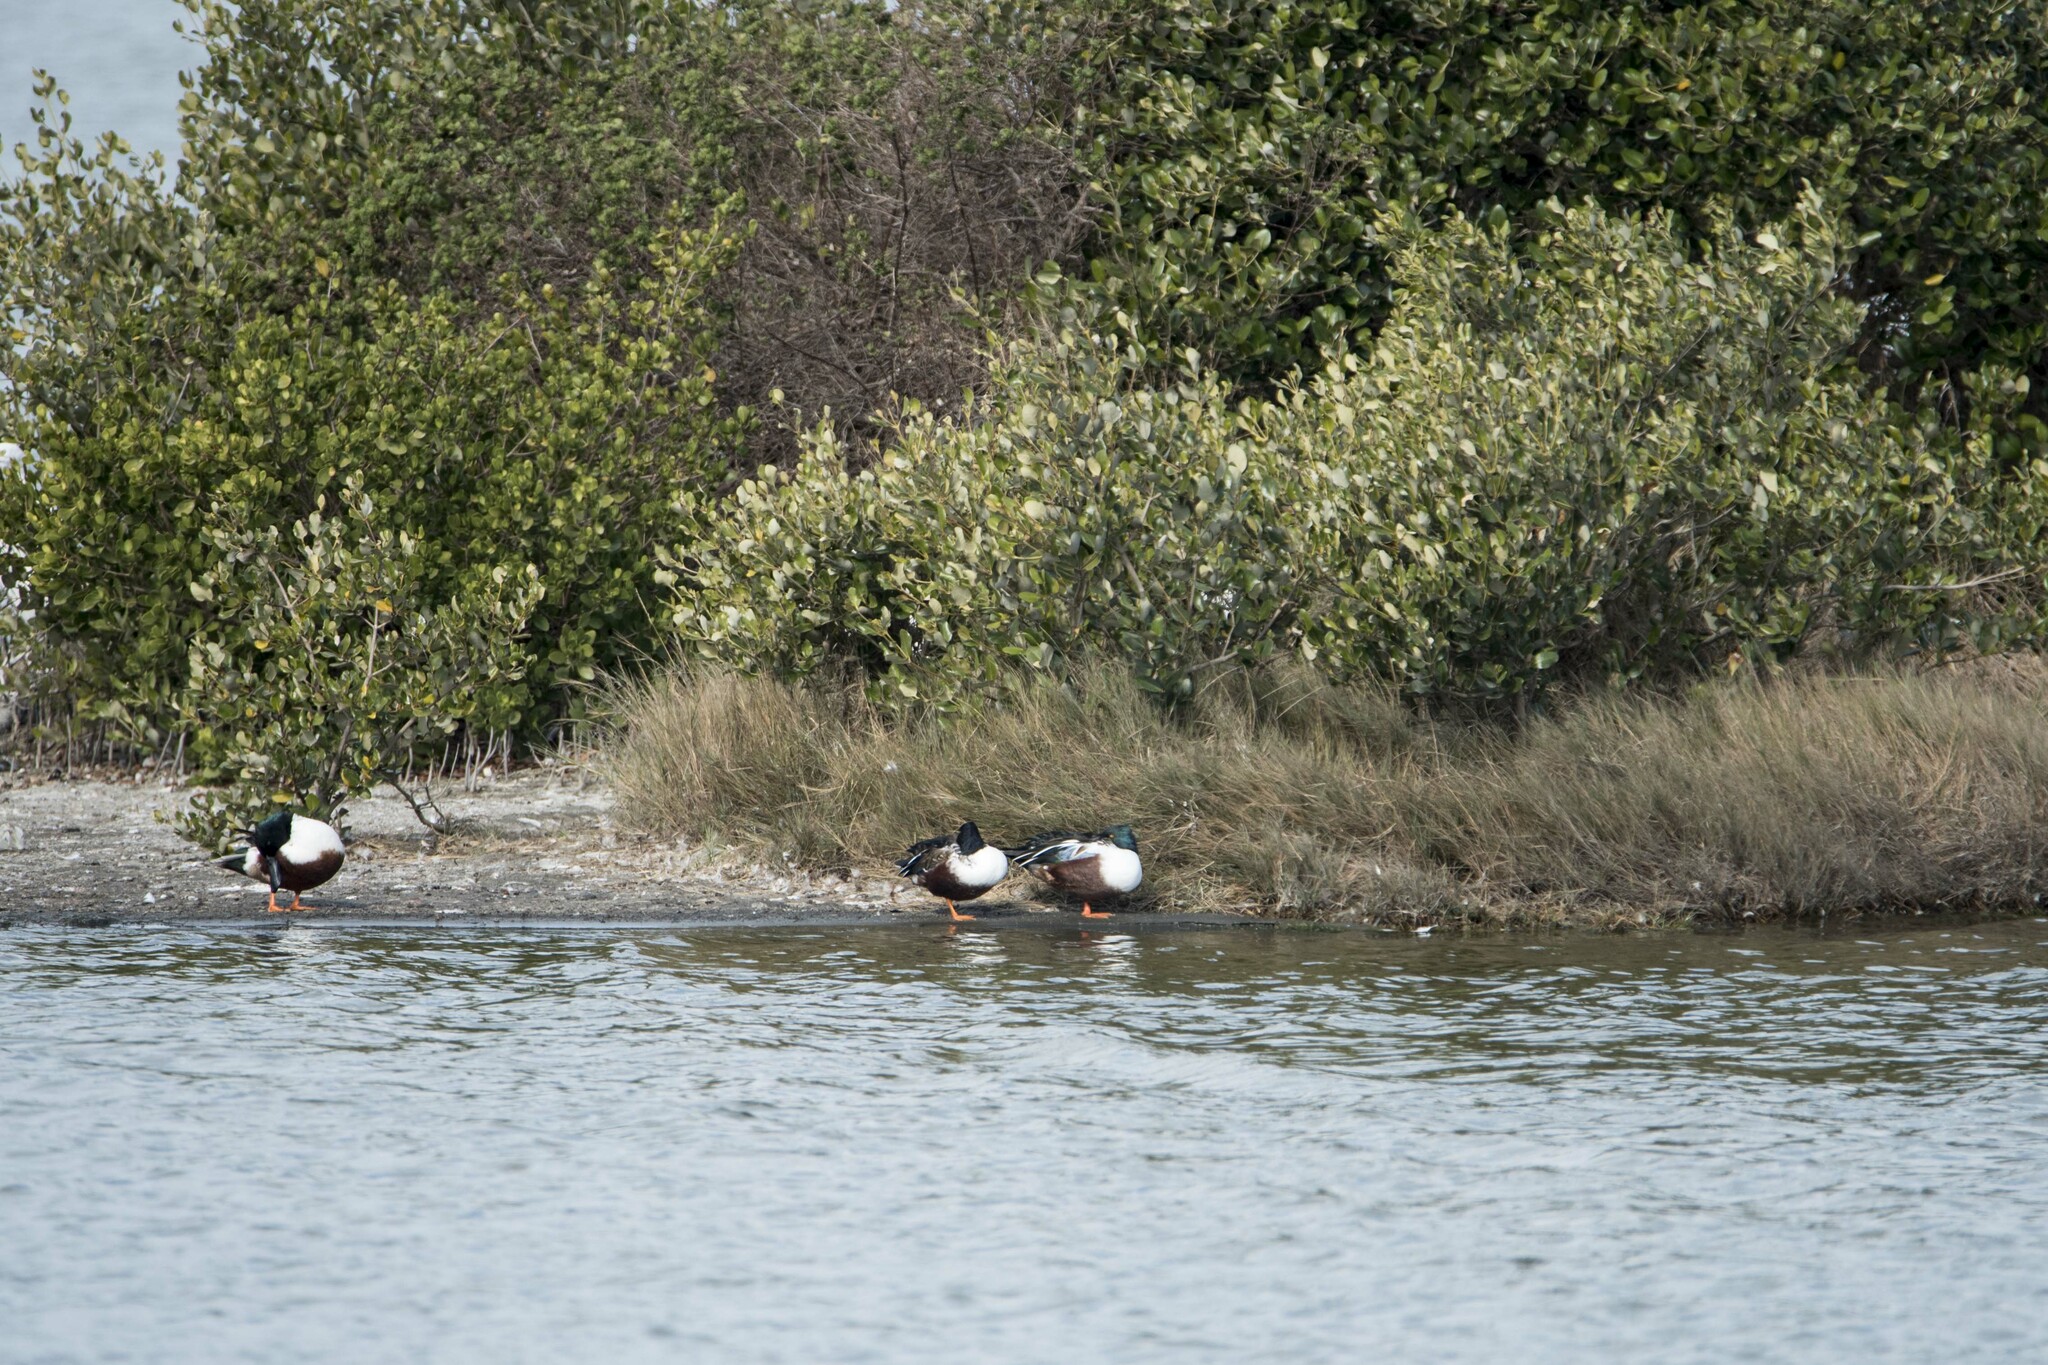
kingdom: Animalia
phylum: Chordata
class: Aves
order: Anseriformes
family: Anatidae
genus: Spatula
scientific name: Spatula clypeata
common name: Northern shoveler
